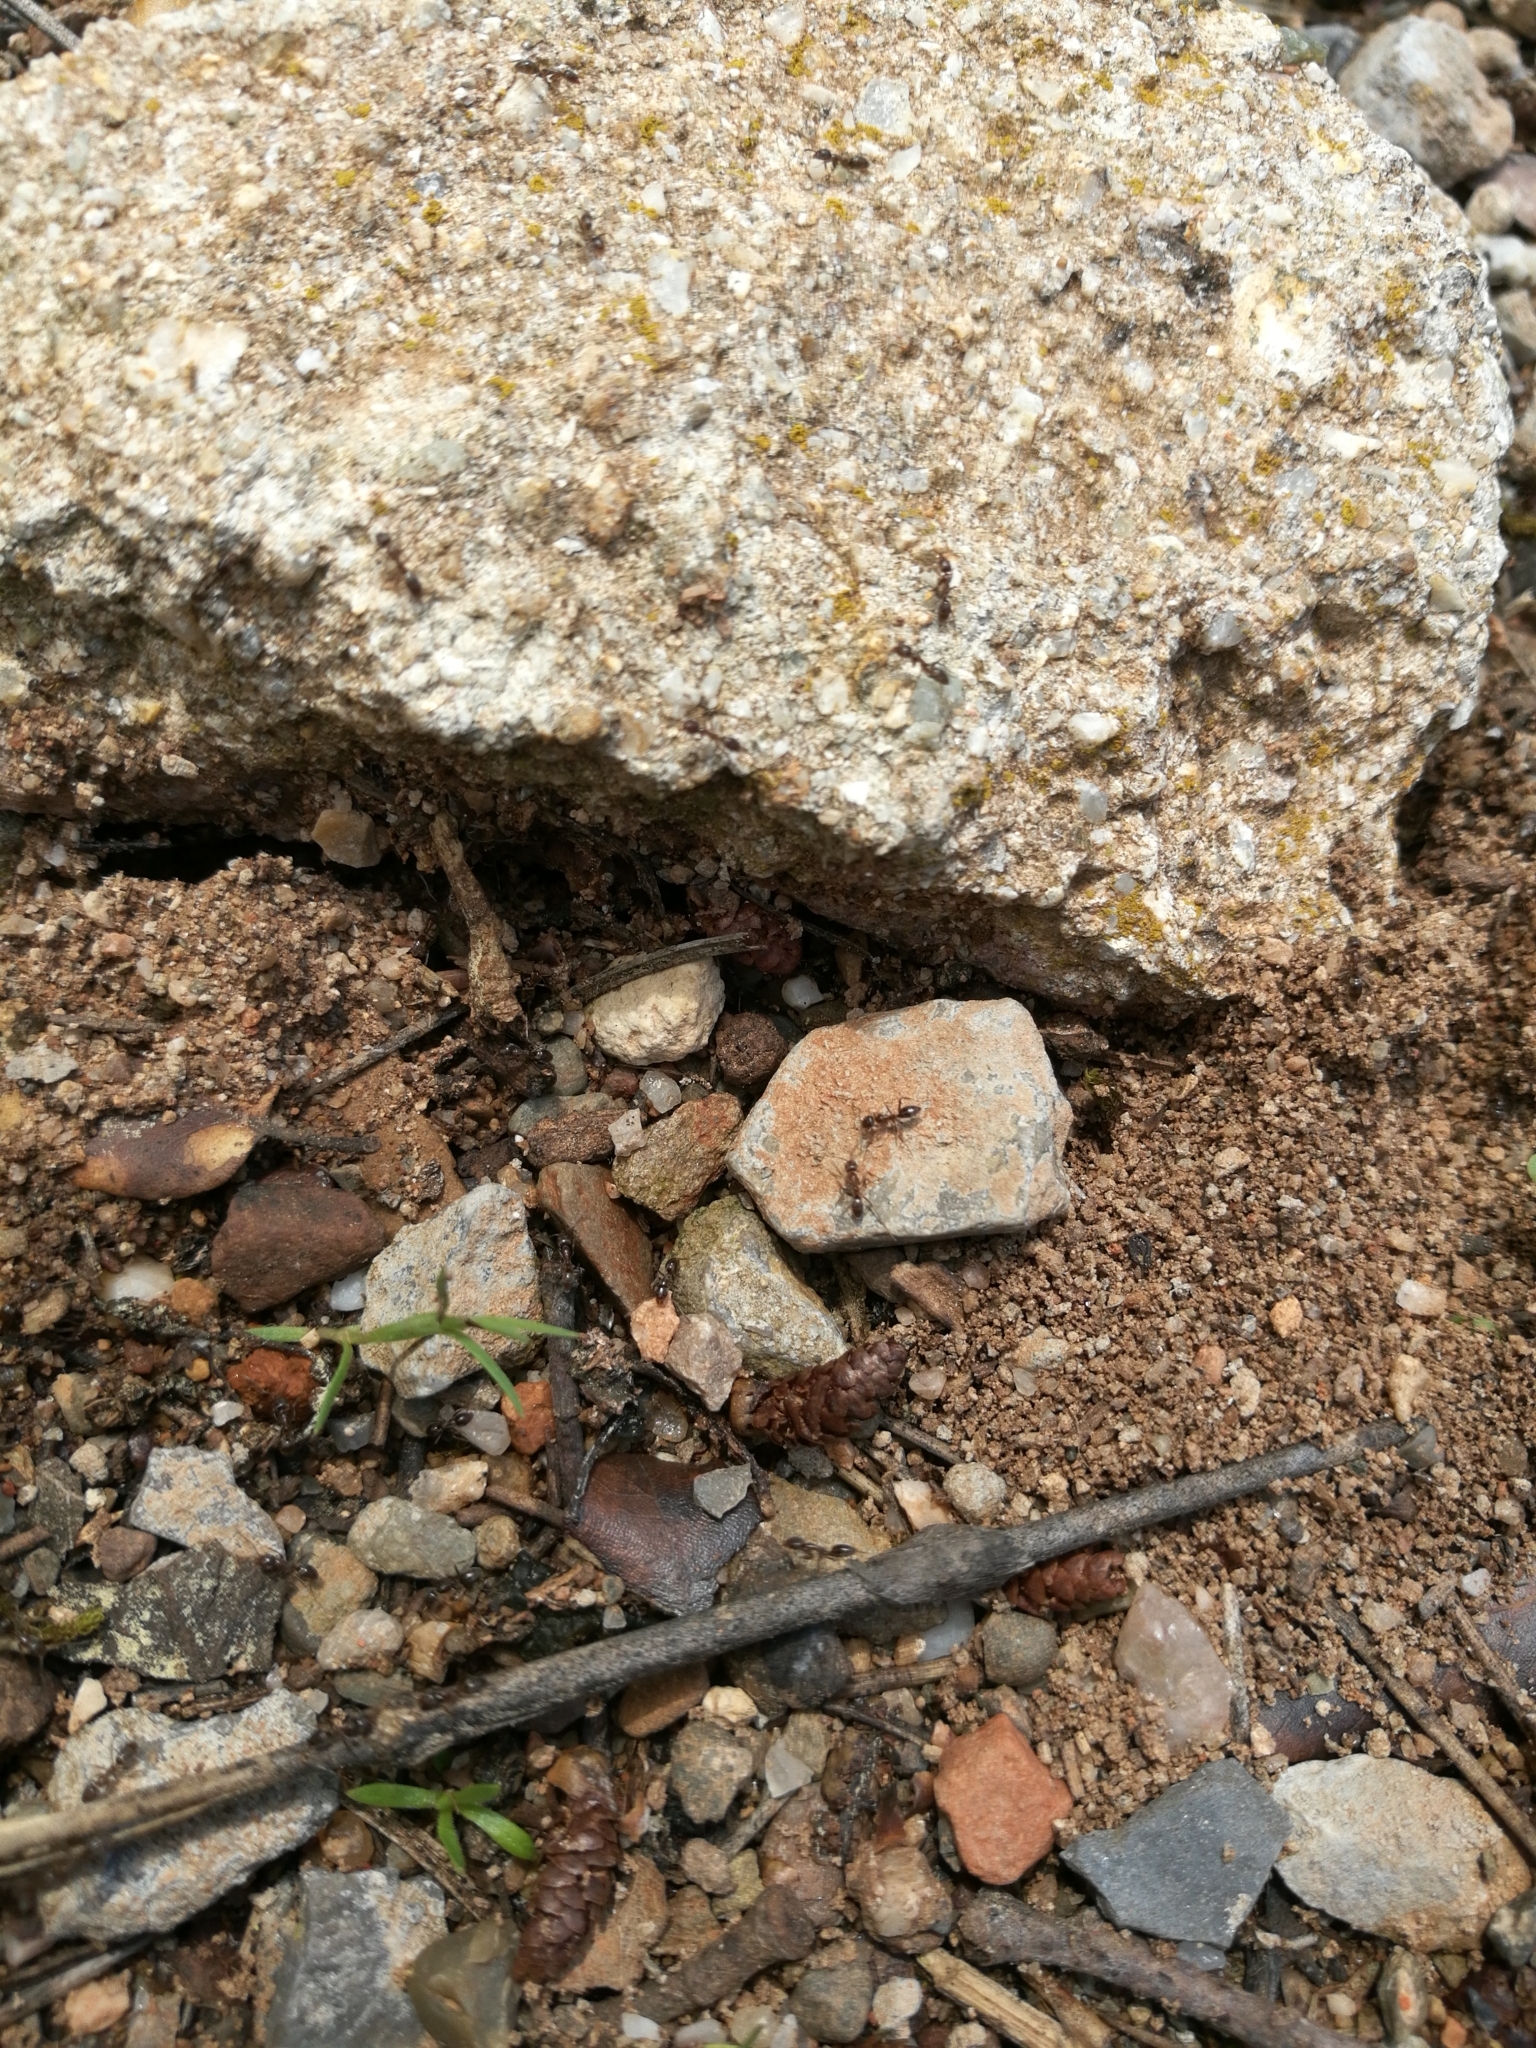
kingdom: Animalia
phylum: Arthropoda
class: Insecta
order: Hymenoptera
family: Formicidae
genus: Linepithema
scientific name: Linepithema humile
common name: Argentine ant
